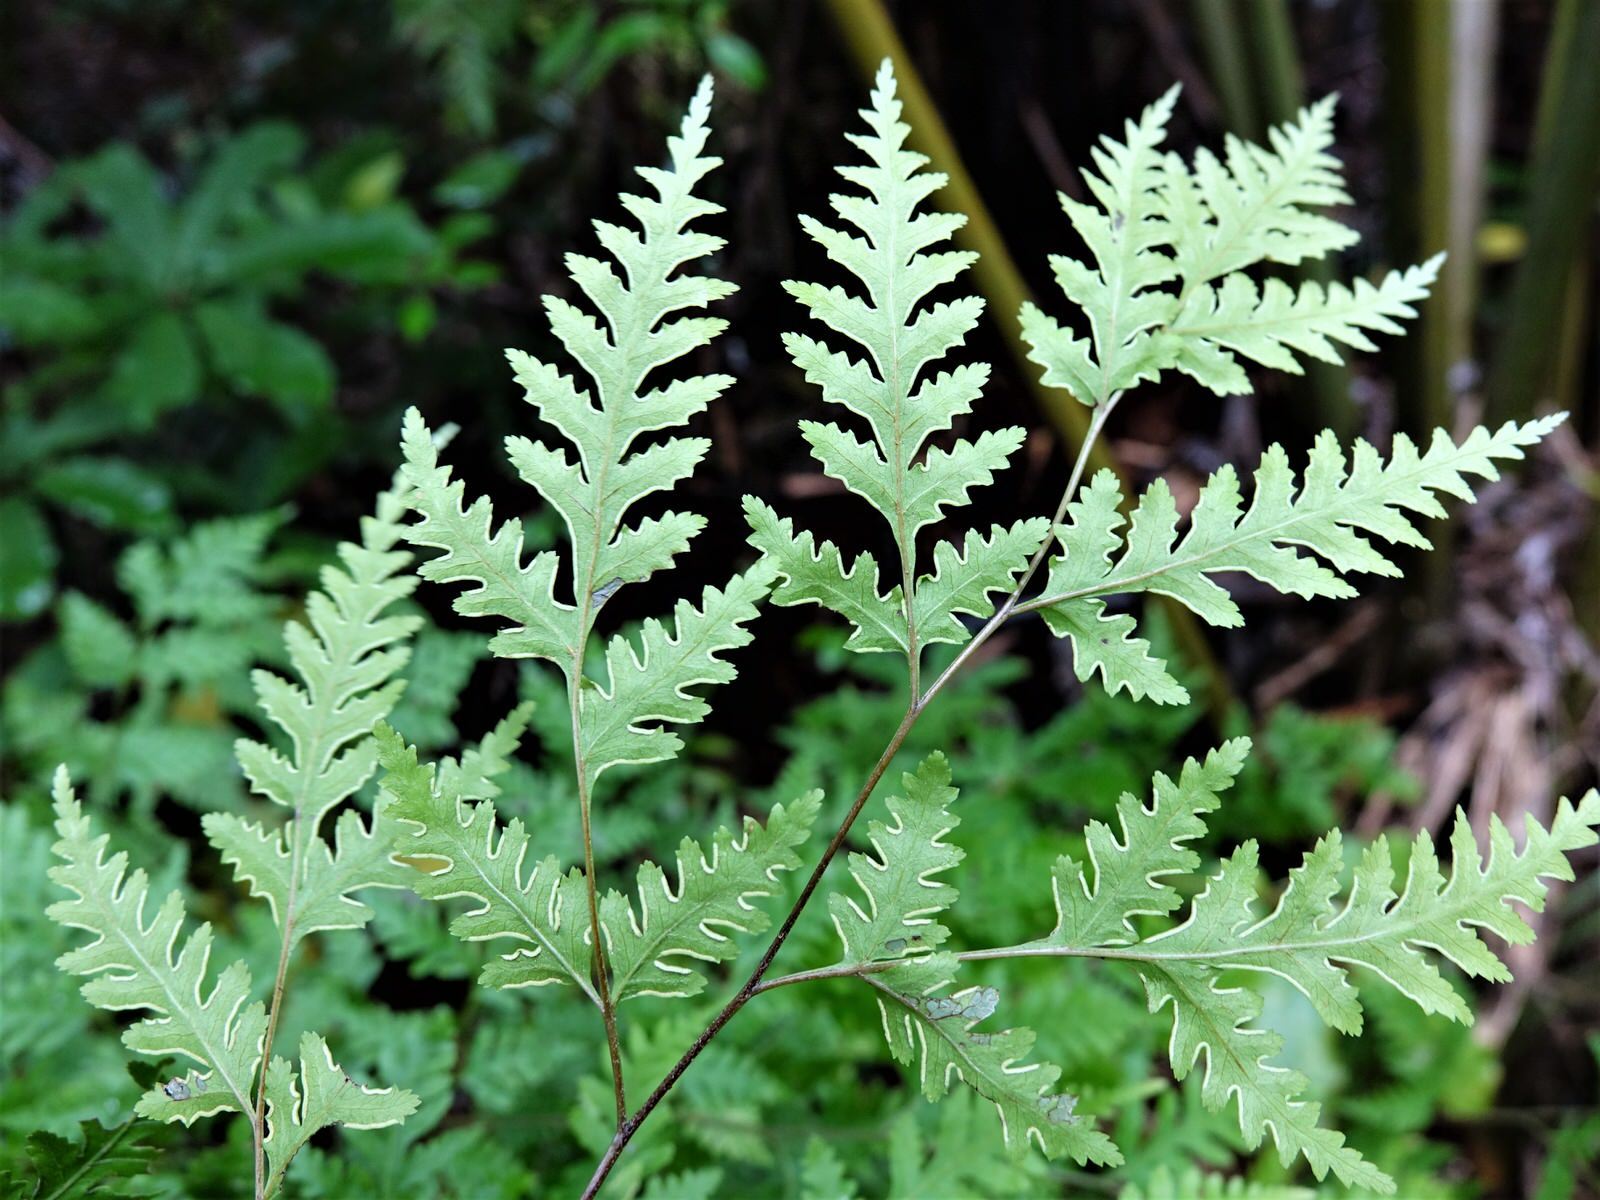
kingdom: Plantae
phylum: Tracheophyta
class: Polypodiopsida
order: Polypodiales
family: Pteridaceae
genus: Pteris
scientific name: Pteris macilenta
